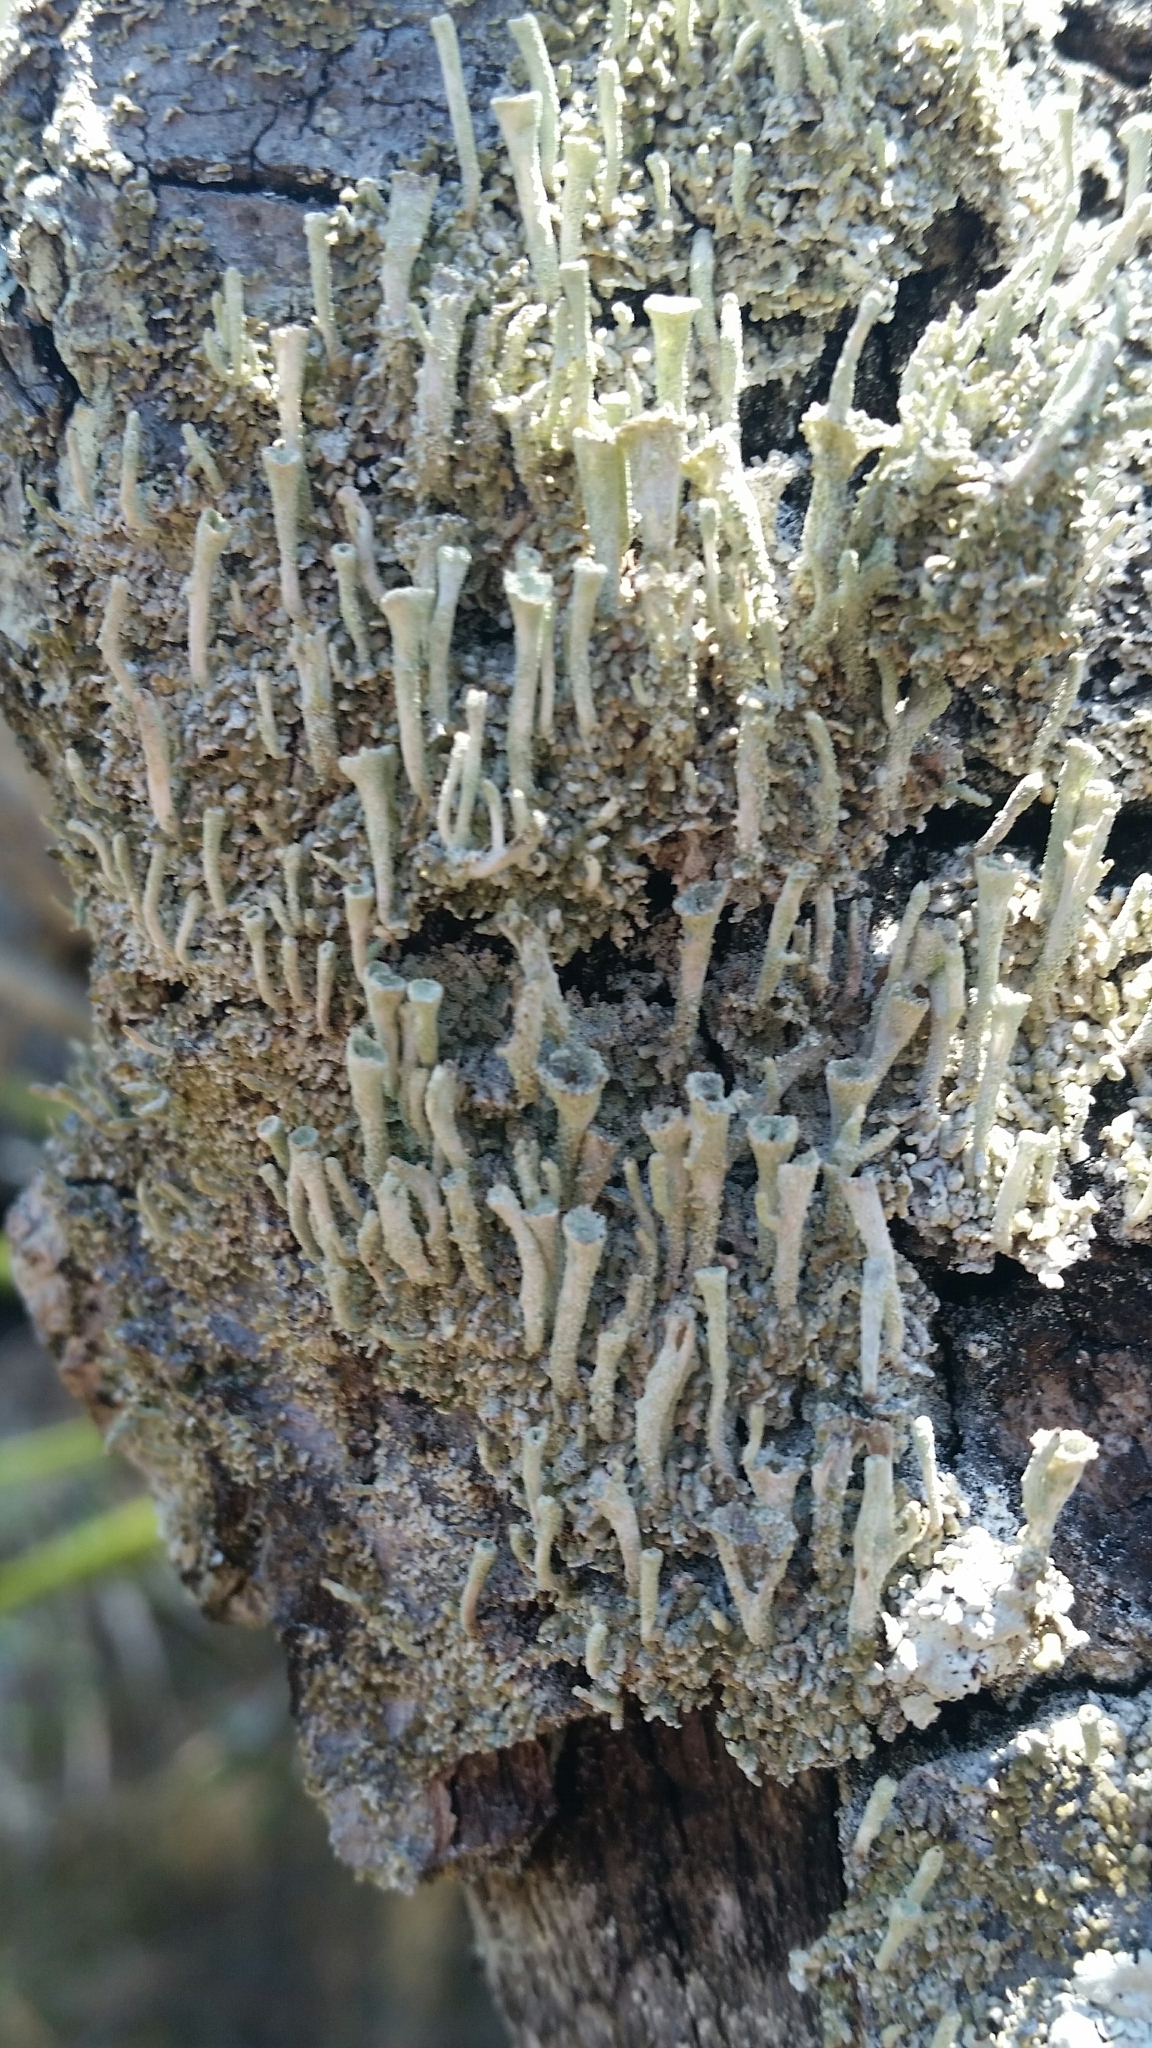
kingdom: Fungi
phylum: Ascomycota
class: Lecanoromycetes
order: Lecanorales
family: Cladoniaceae
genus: Cladonia
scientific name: Cladonia chlorophaea
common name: Mealy pixie cup
